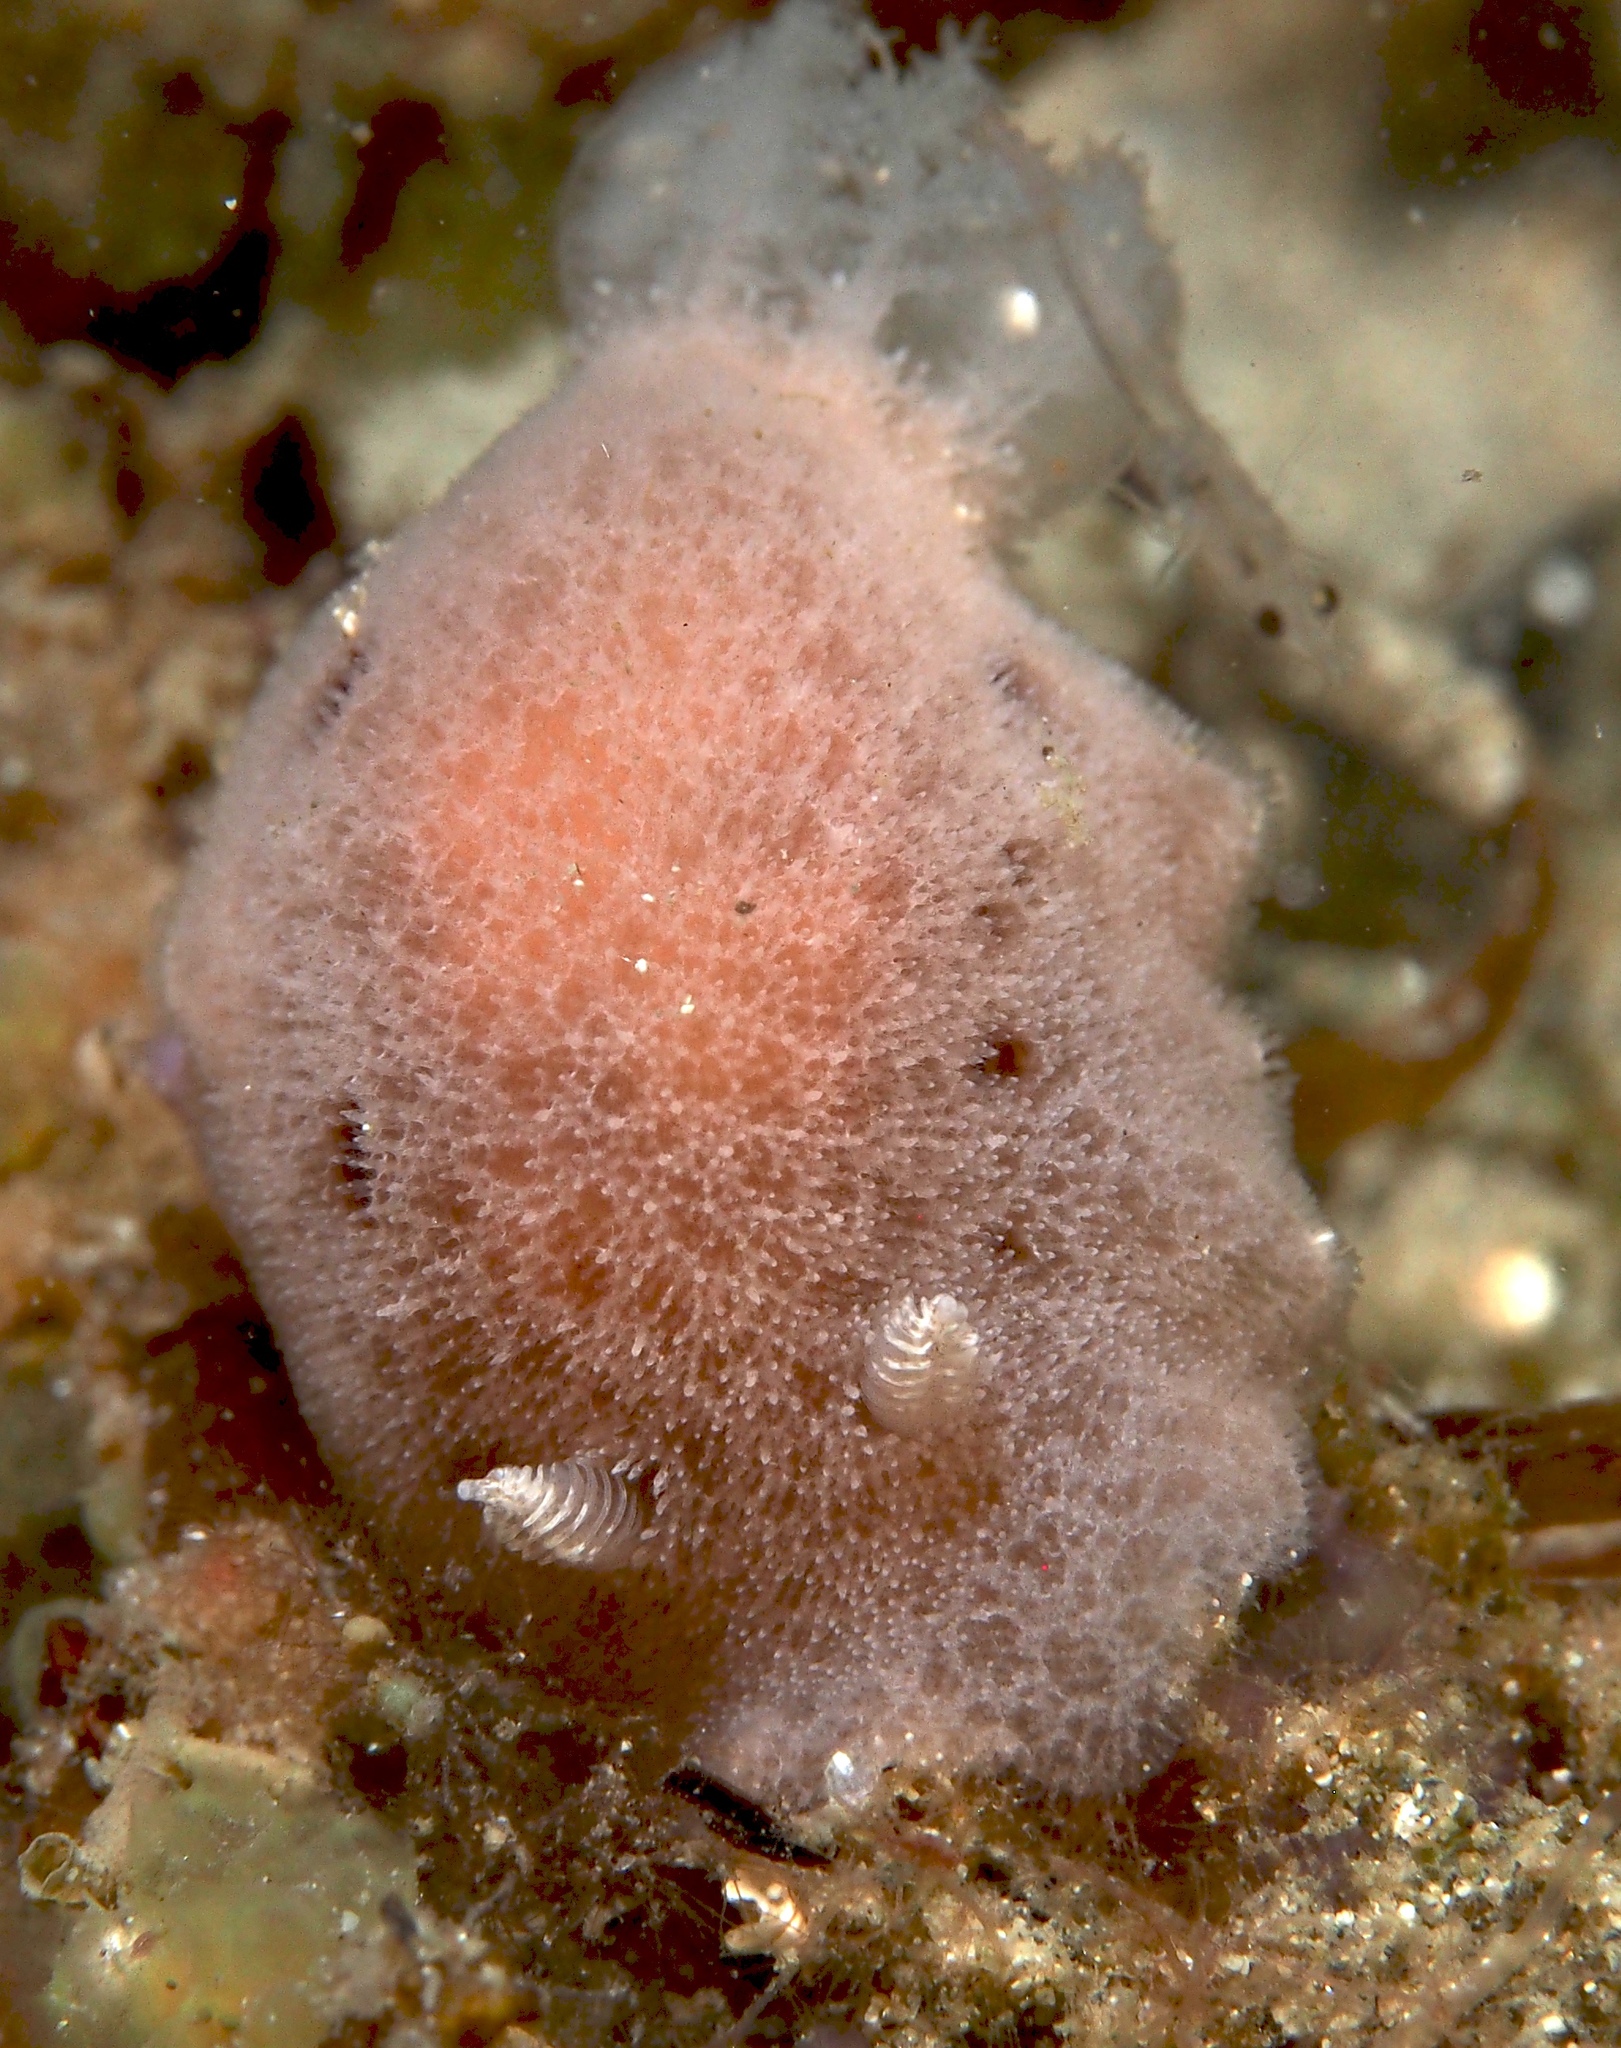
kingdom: Animalia
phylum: Mollusca
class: Gastropoda
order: Nudibranchia
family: Discodorididae
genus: Jorunna
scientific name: Jorunna hartleyi
